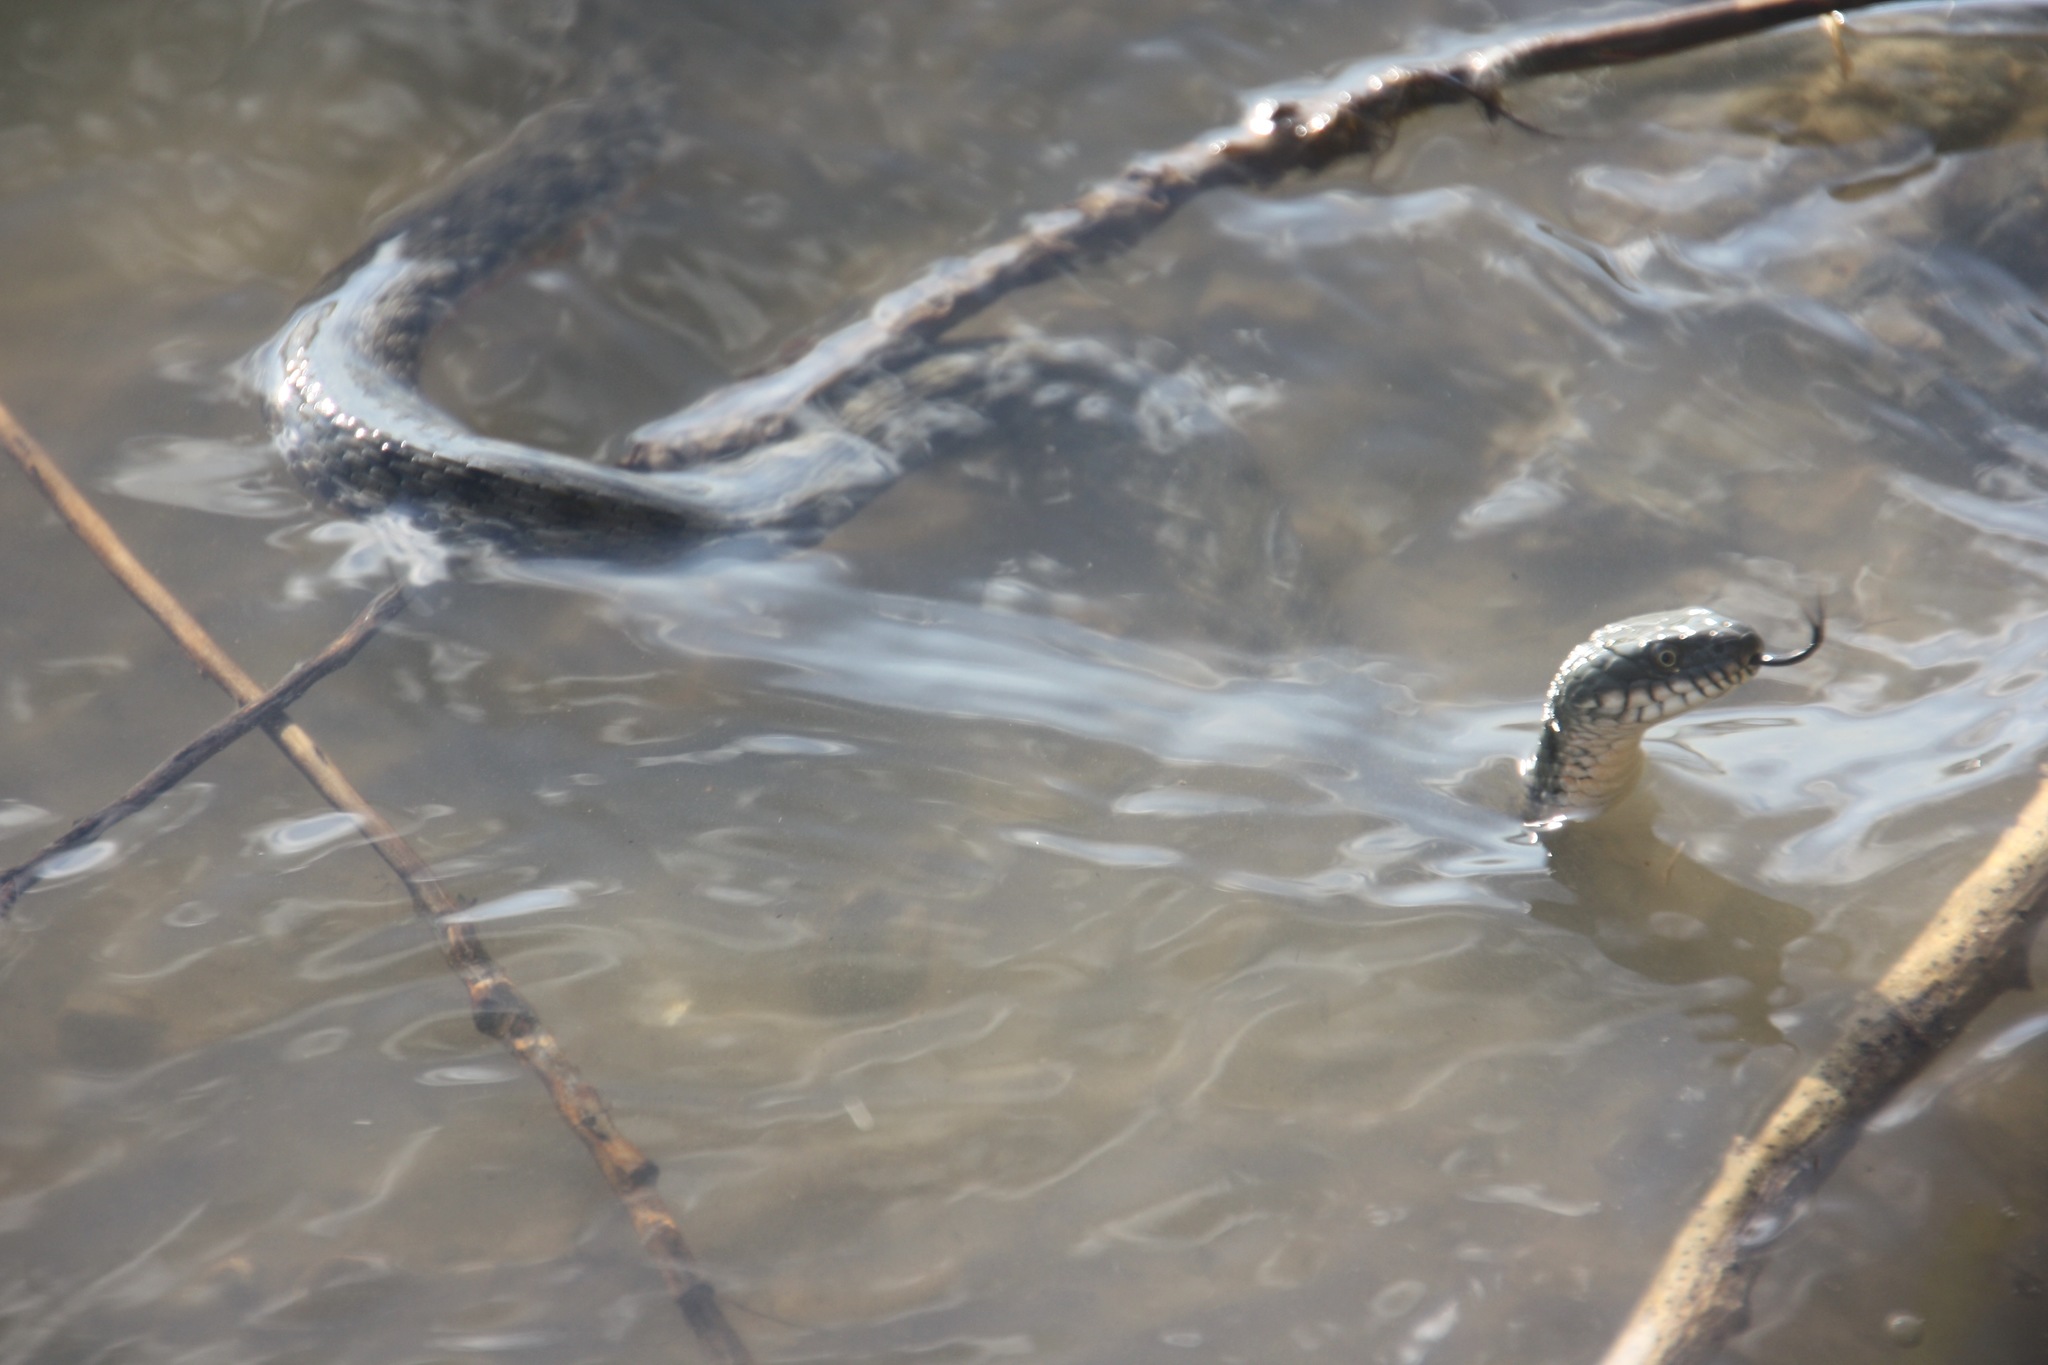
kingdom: Animalia
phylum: Chordata
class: Squamata
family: Colubridae
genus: Natrix
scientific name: Natrix tessellata
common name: Dice snake
